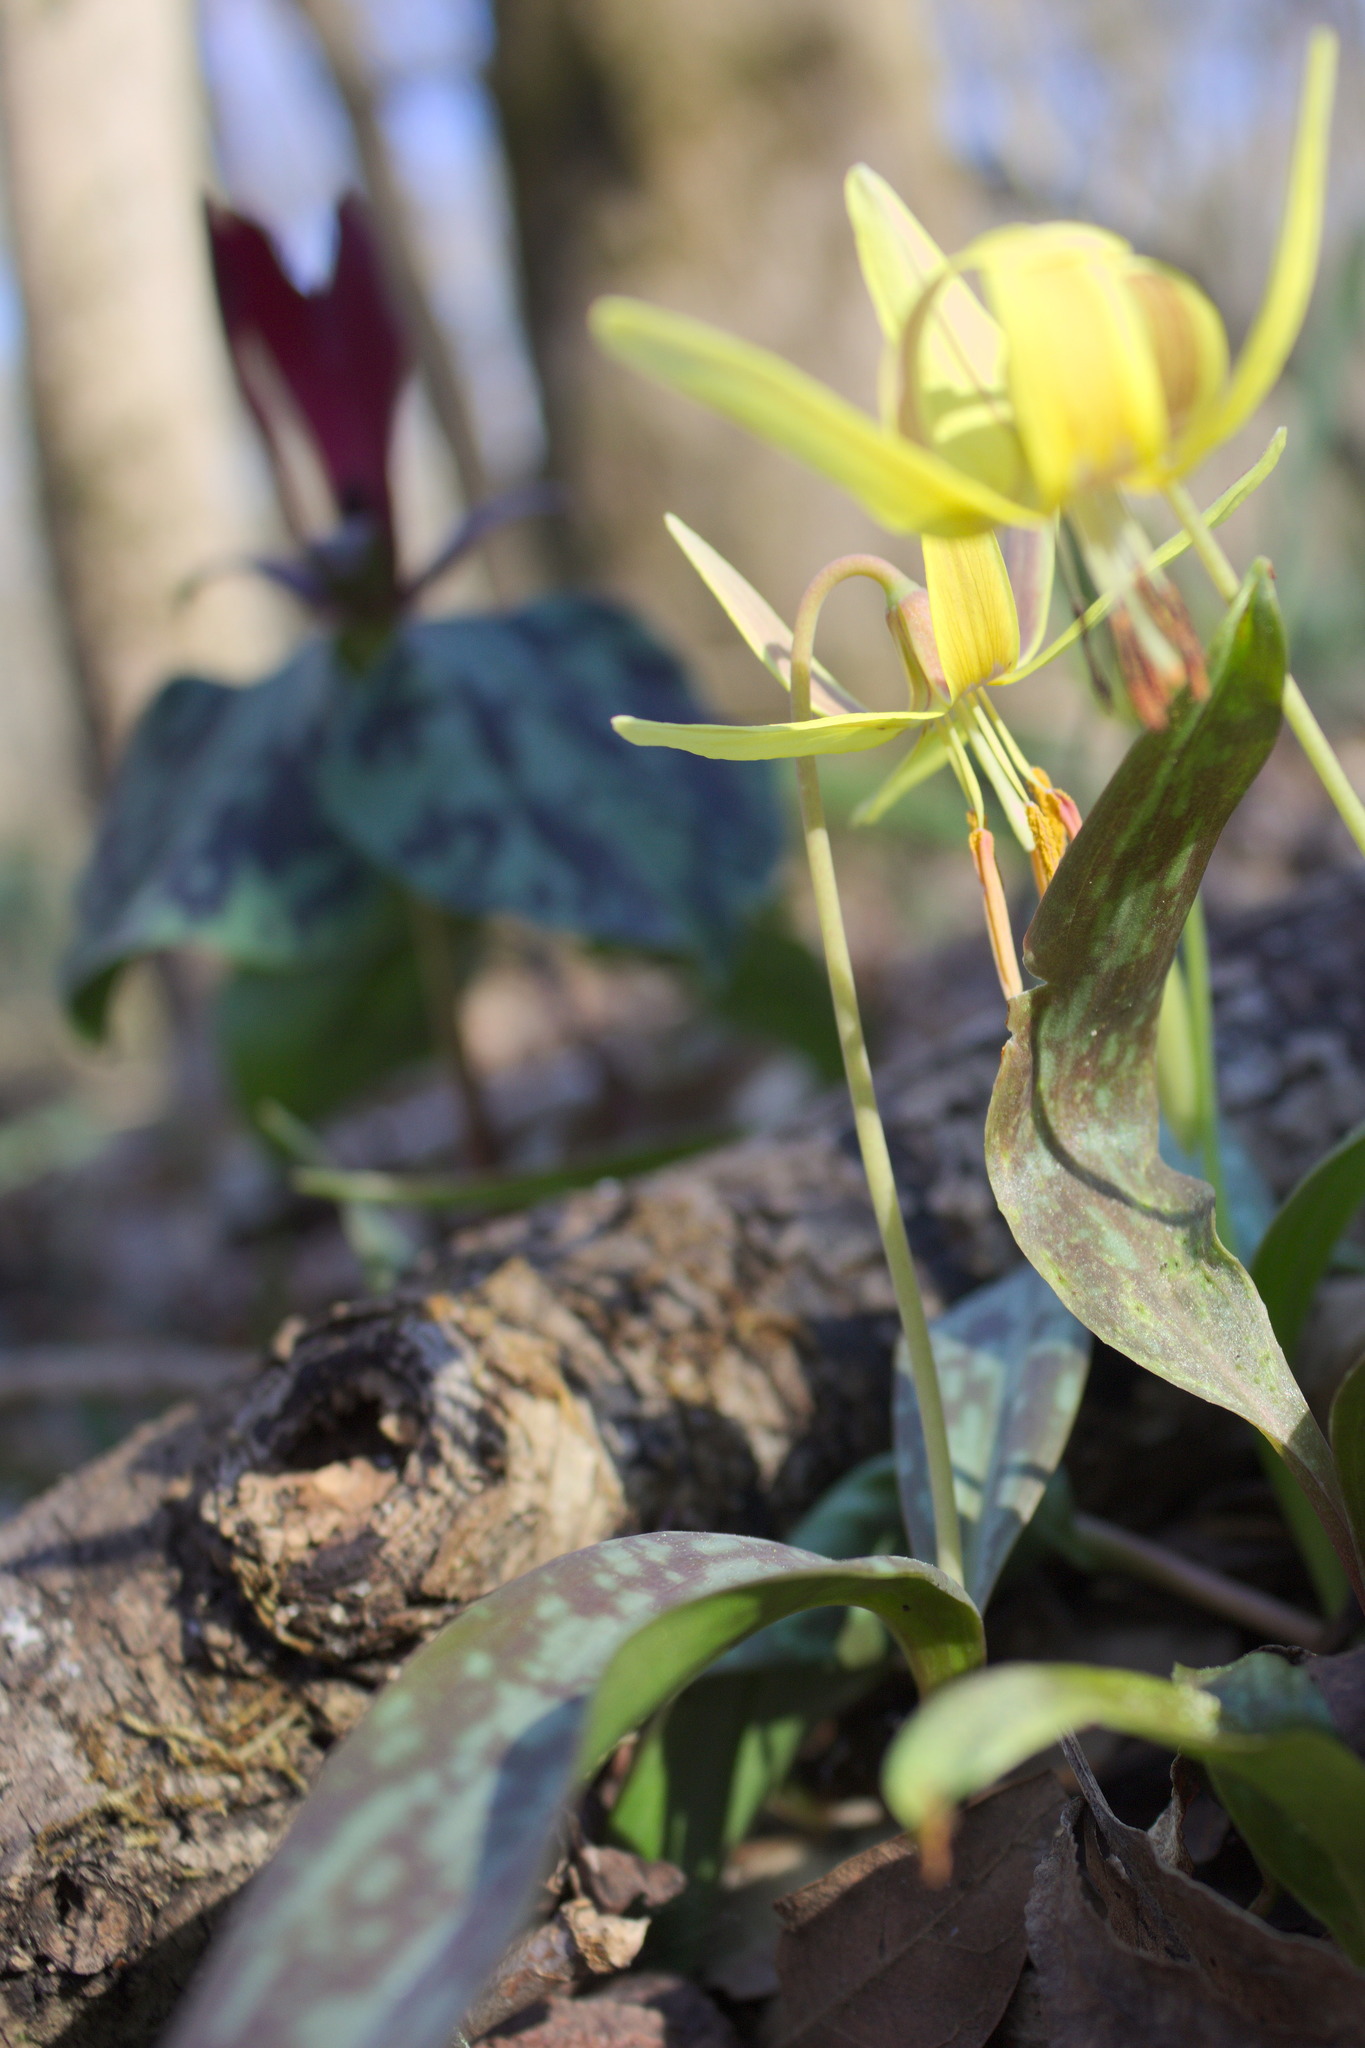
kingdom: Plantae
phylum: Tracheophyta
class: Liliopsida
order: Liliales
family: Liliaceae
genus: Erythronium
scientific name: Erythronium umbilicatum
